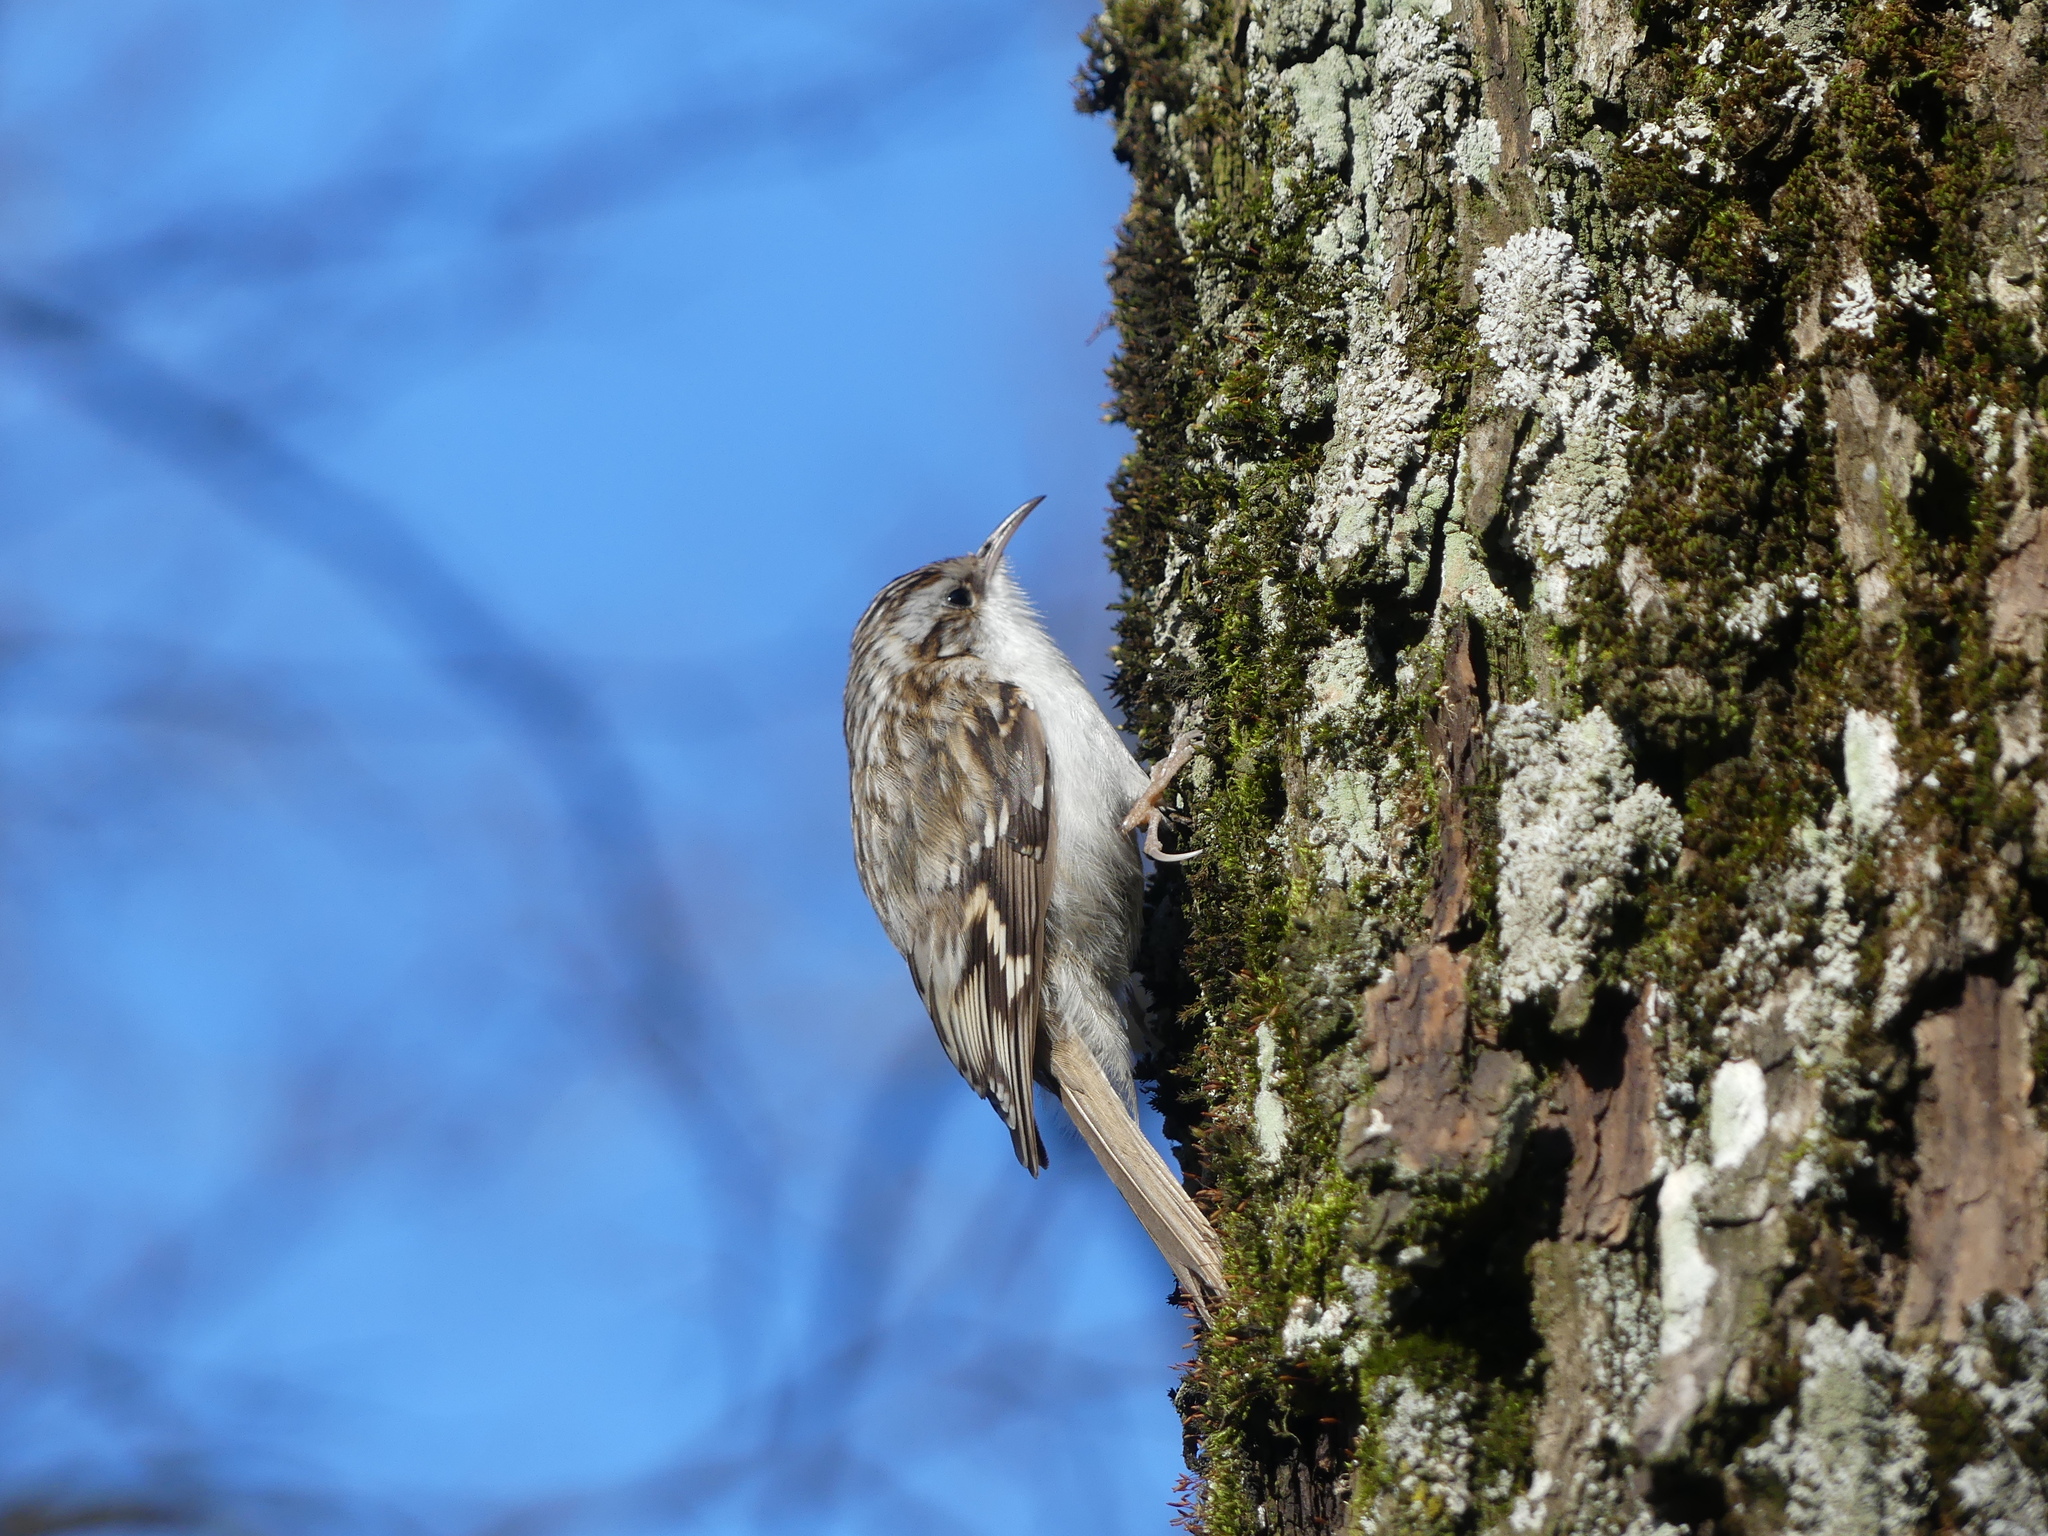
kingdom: Animalia
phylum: Chordata
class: Aves
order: Passeriformes
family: Certhiidae
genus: Certhia
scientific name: Certhia familiaris
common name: Eurasian treecreeper
